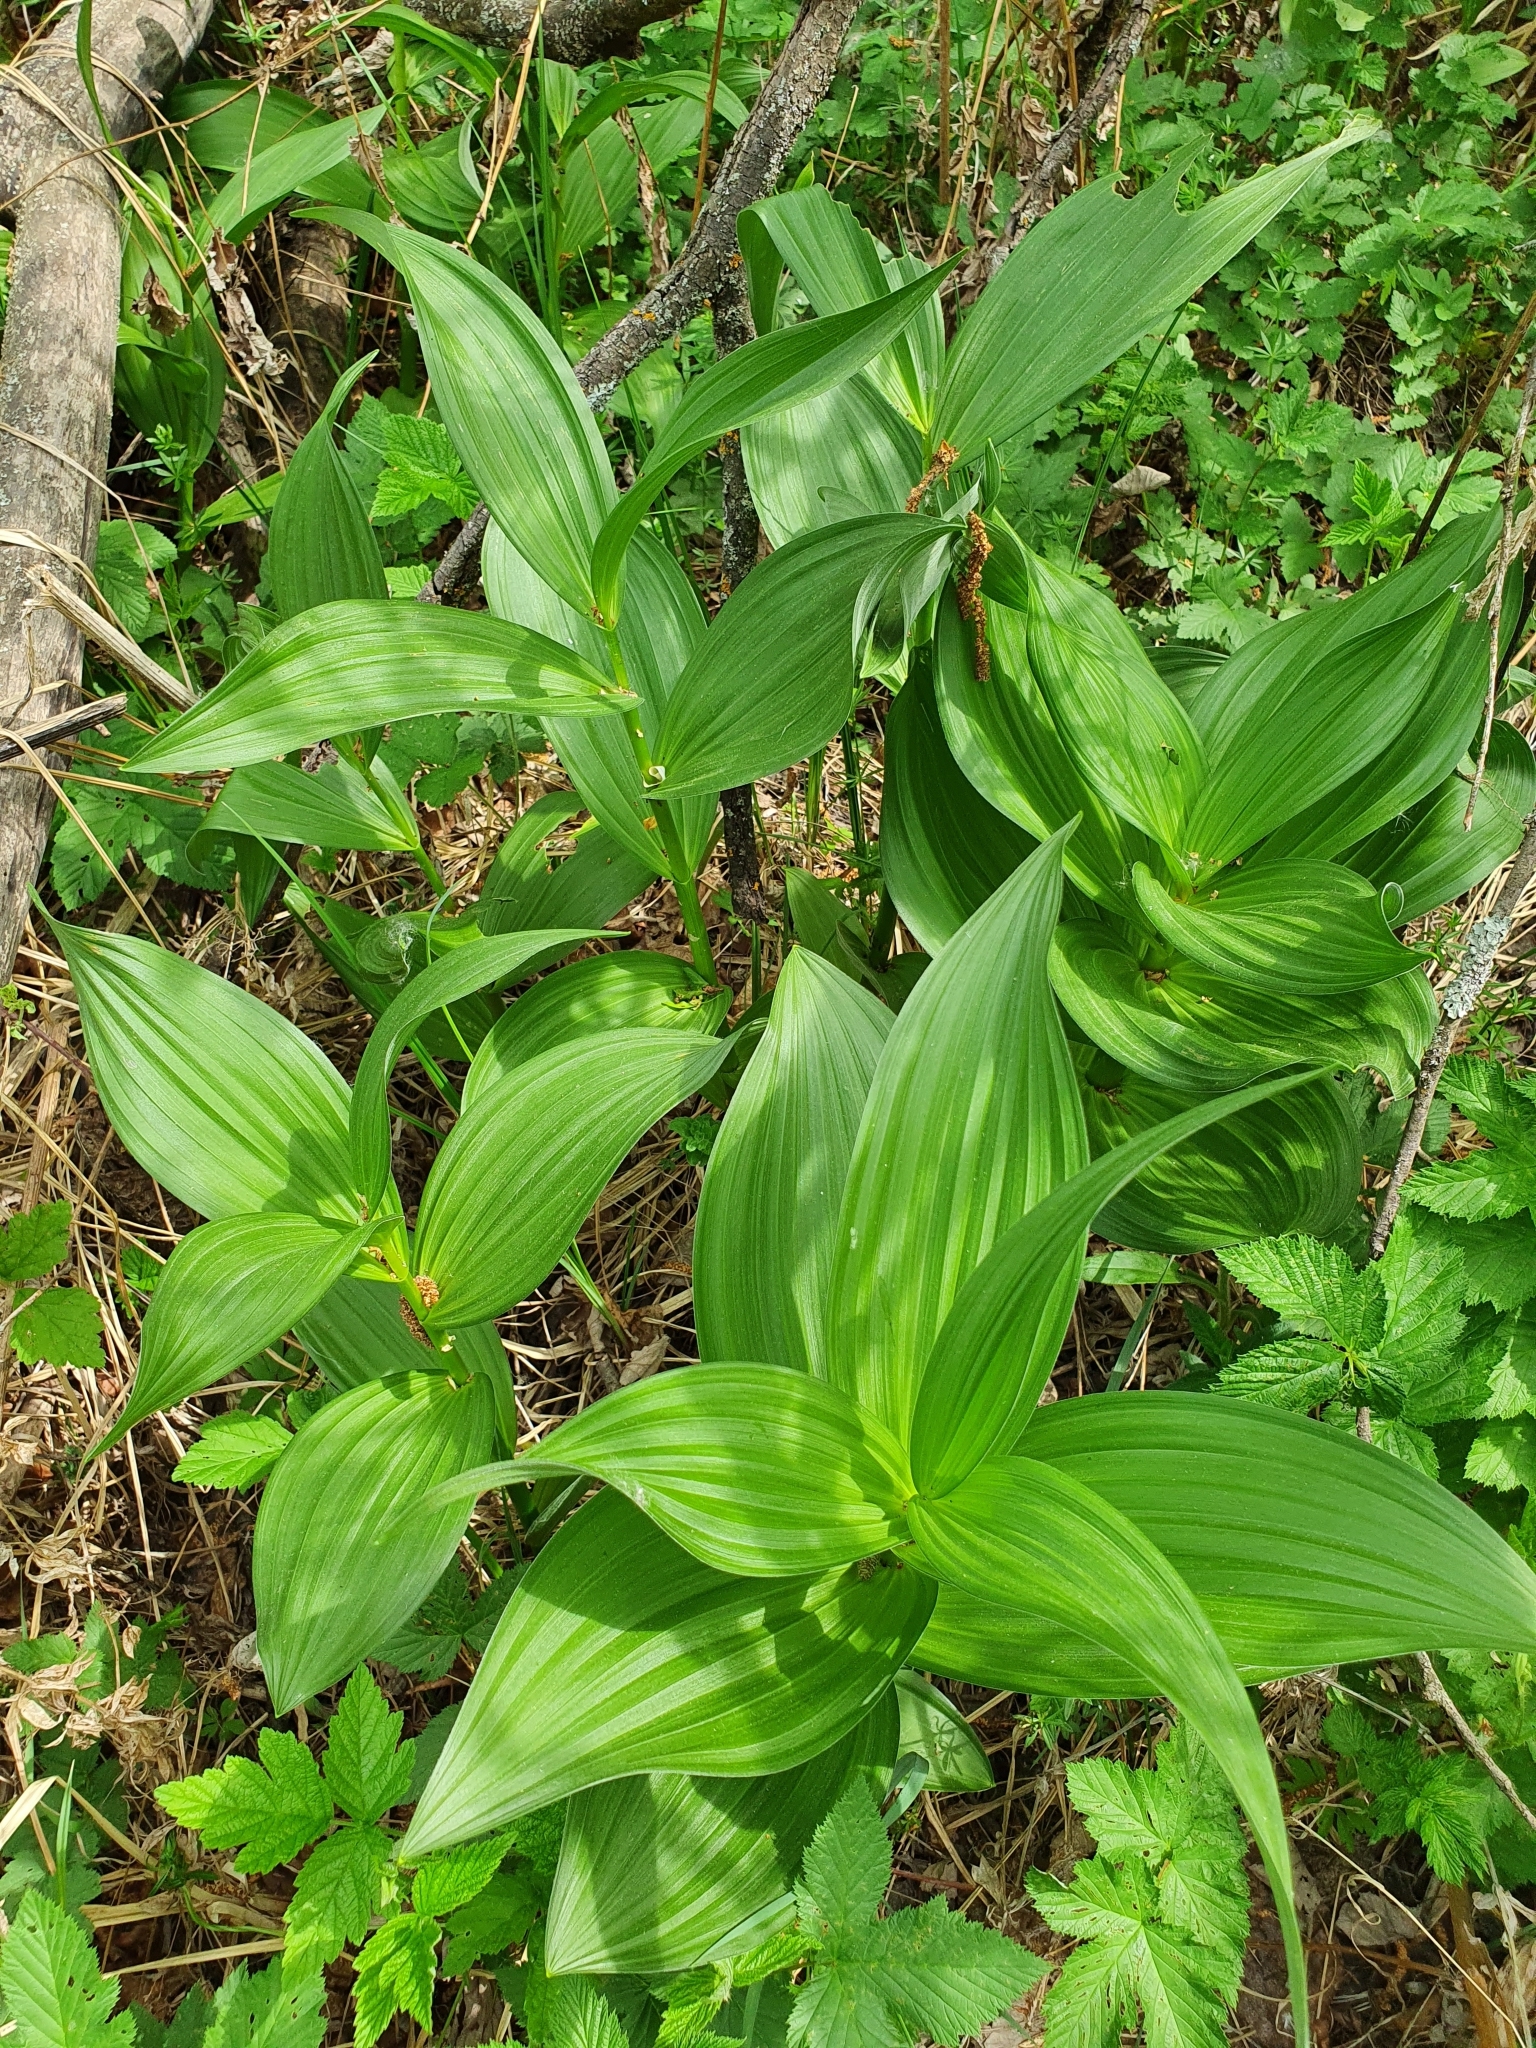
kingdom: Plantae
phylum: Tracheophyta
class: Liliopsida
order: Liliales
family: Melanthiaceae
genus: Veratrum
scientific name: Veratrum lobelianum
